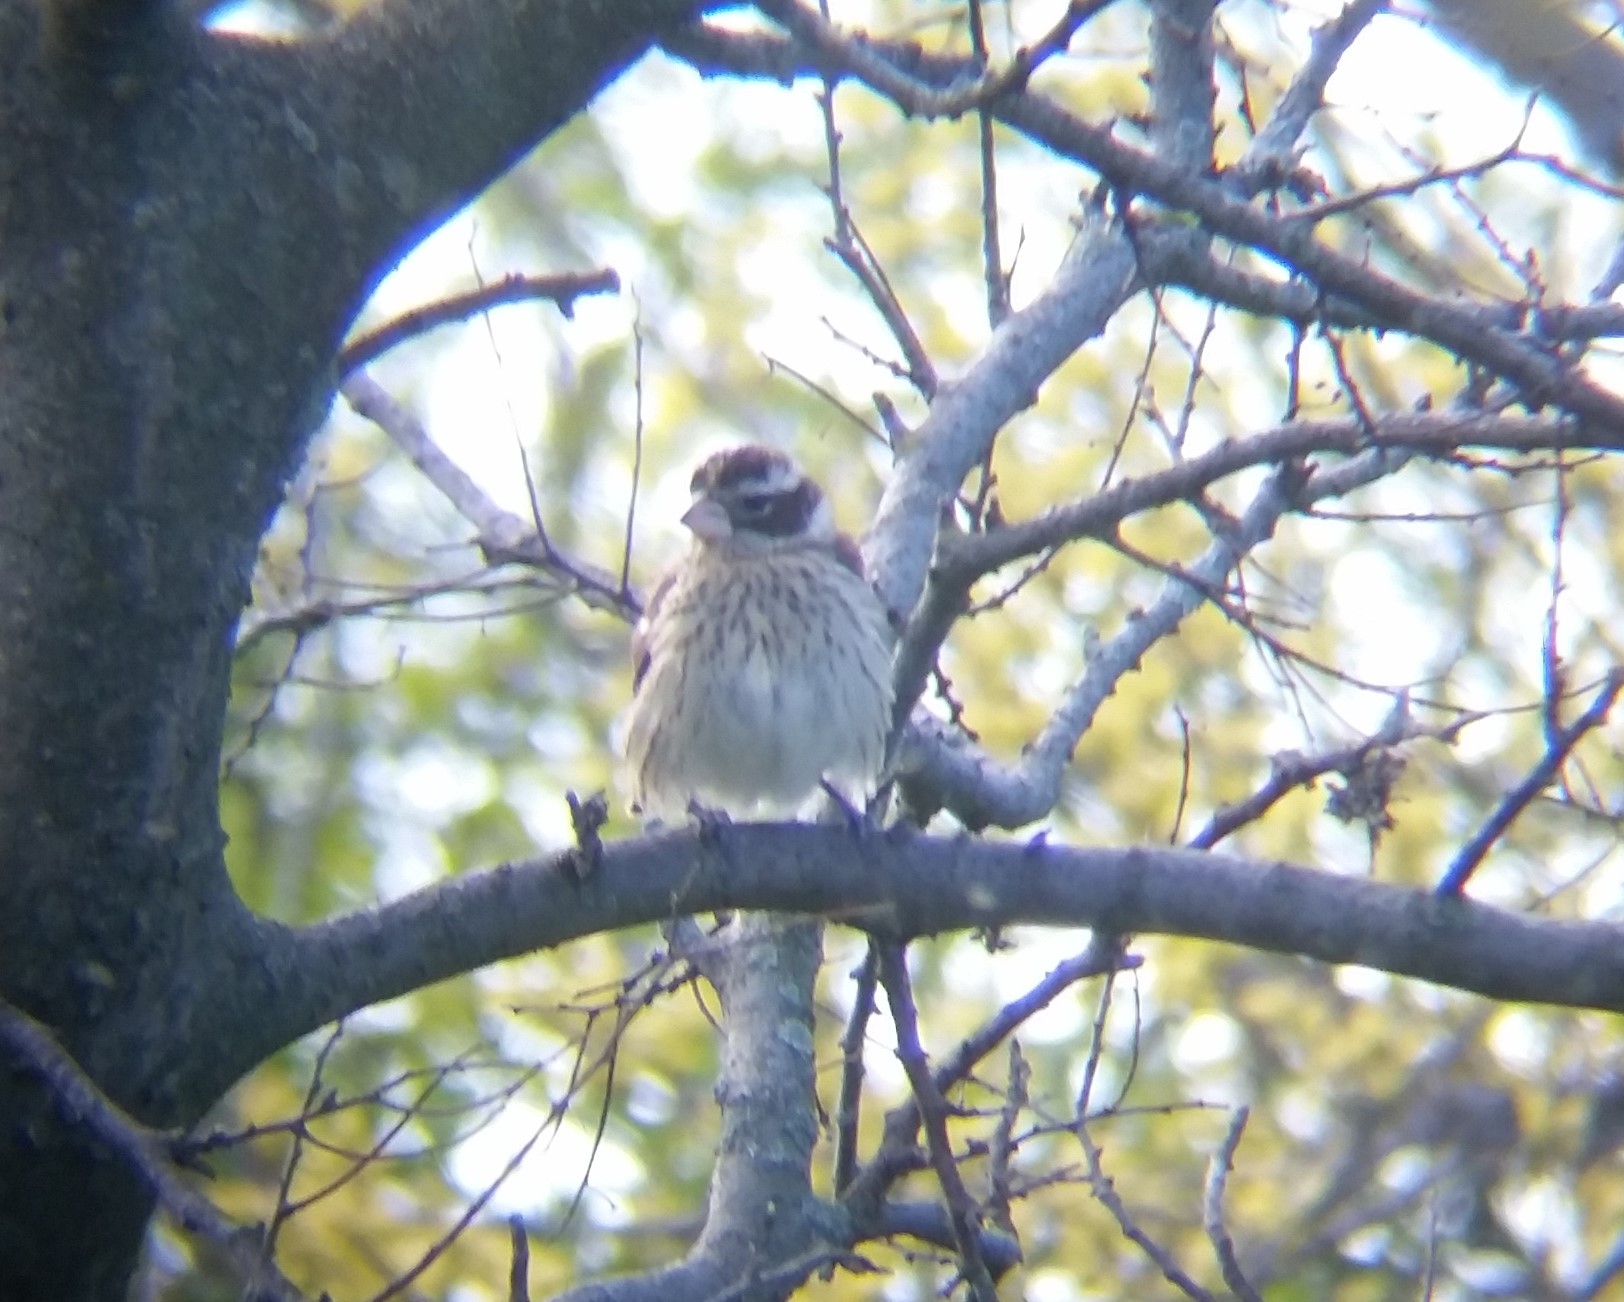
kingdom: Animalia
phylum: Chordata
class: Aves
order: Passeriformes
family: Cardinalidae
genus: Pheucticus
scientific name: Pheucticus ludovicianus
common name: Rose-breasted grosbeak
